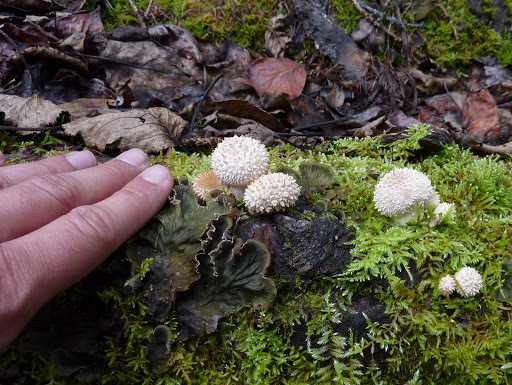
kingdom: Fungi
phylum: Basidiomycota
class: Agaricomycetes
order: Agaricales
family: Lycoperdaceae
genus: Lycoperdon
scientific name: Lycoperdon perlatum
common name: Common puffball
